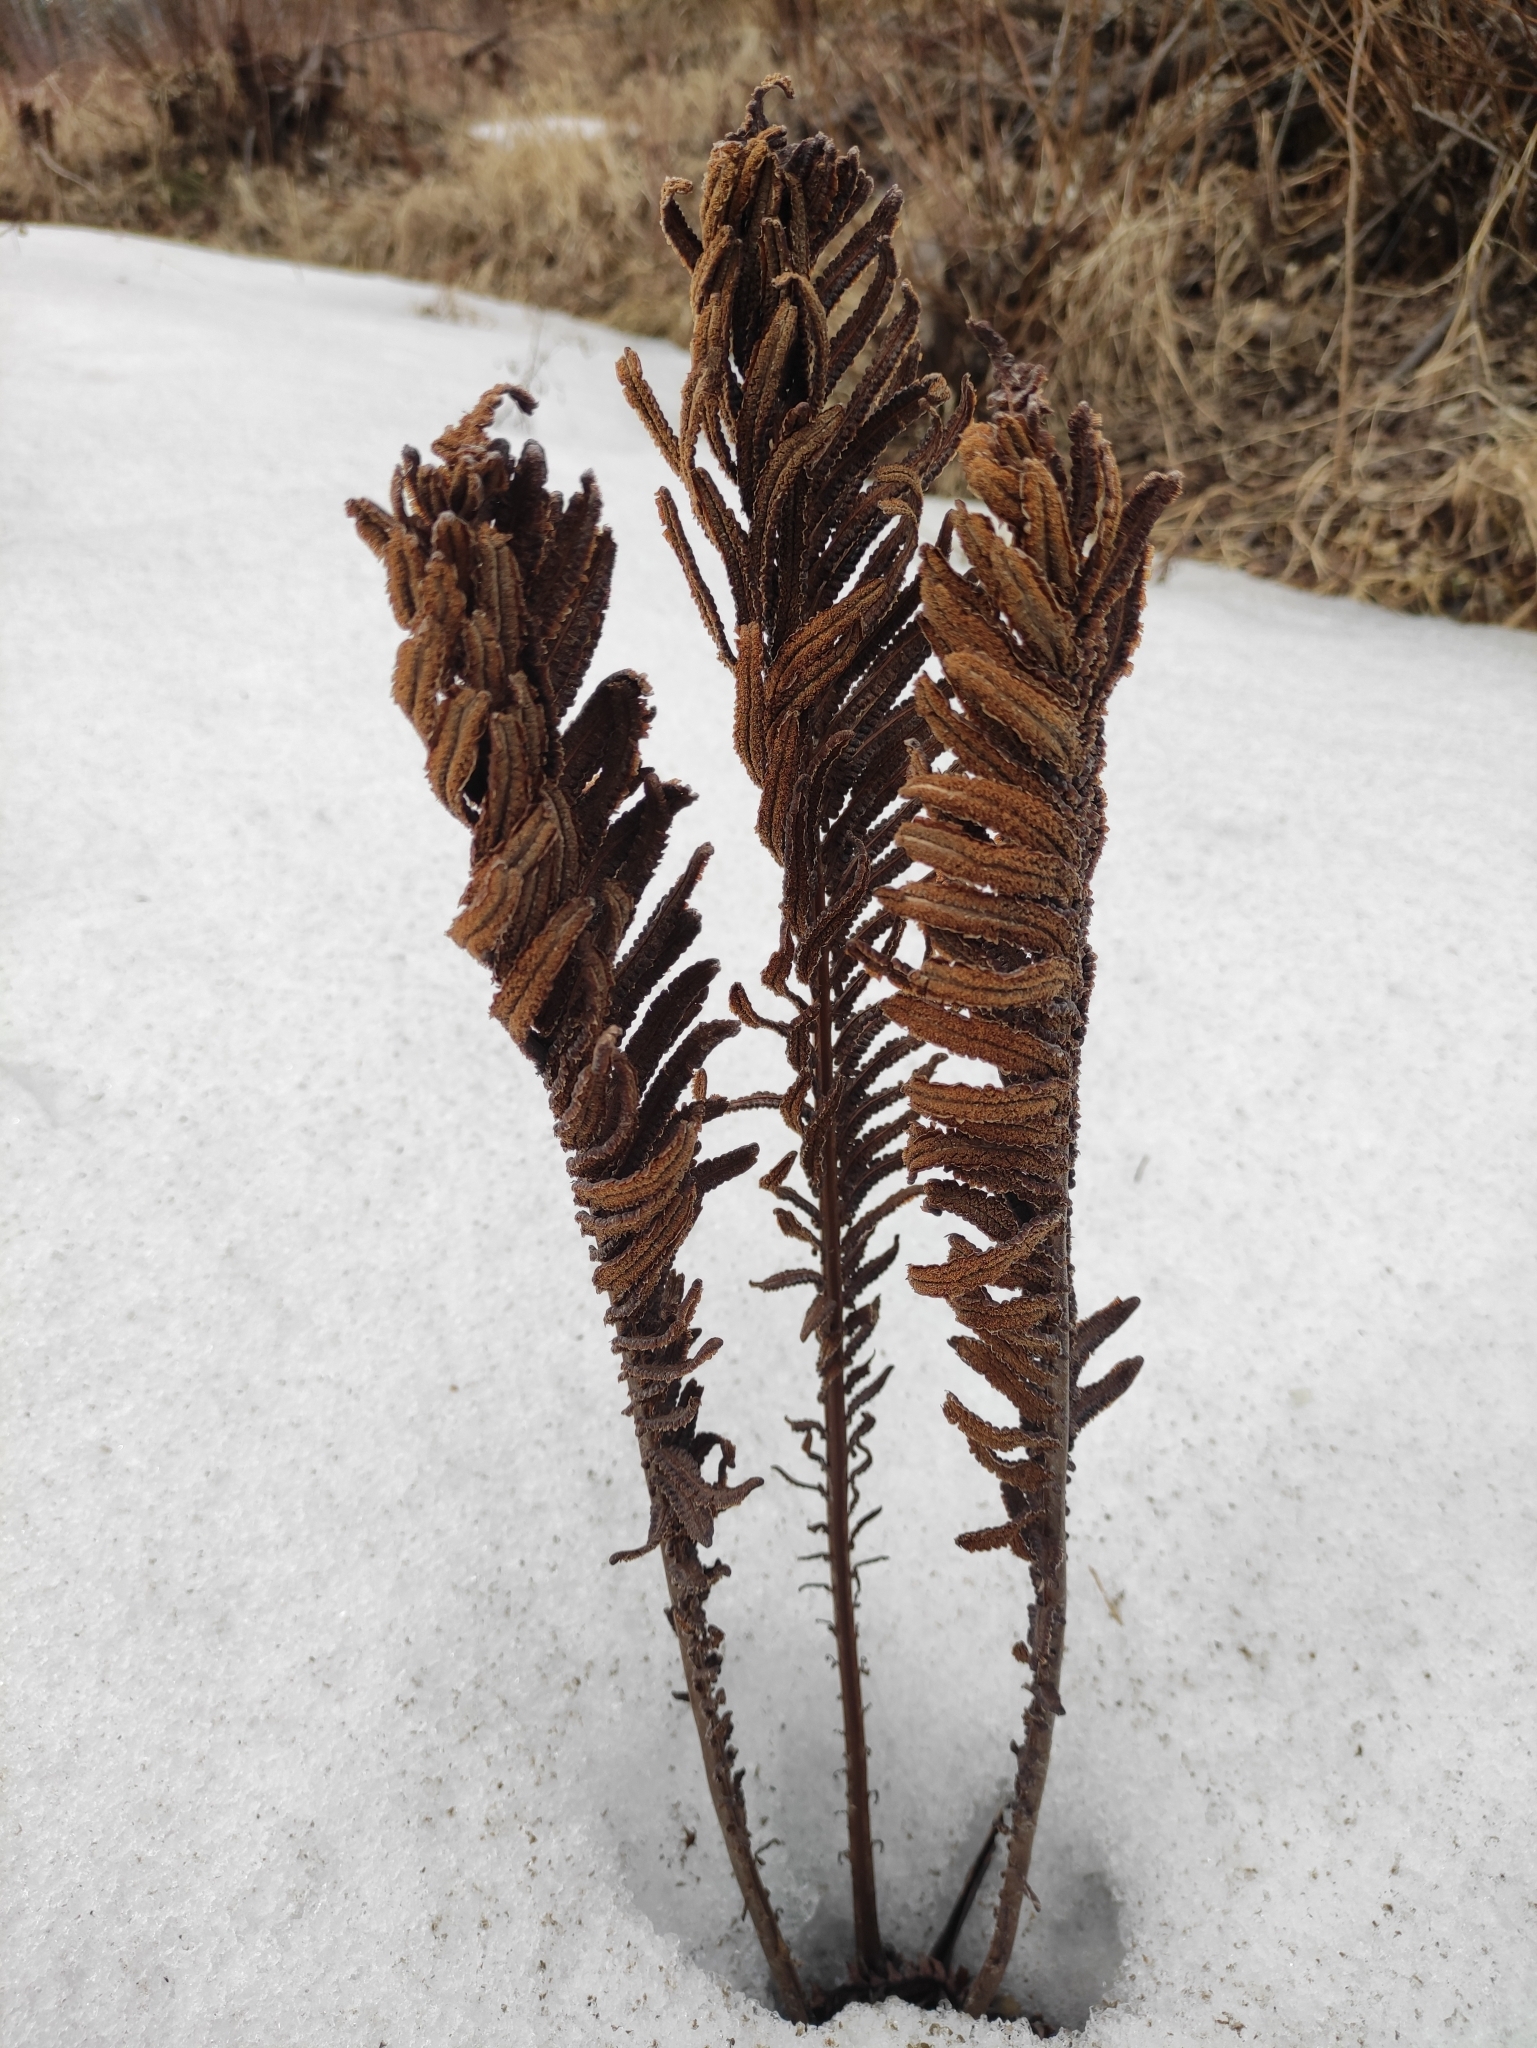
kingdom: Plantae
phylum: Tracheophyta
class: Polypodiopsida
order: Polypodiales
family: Onocleaceae
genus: Matteuccia
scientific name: Matteuccia struthiopteris
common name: Ostrich fern
